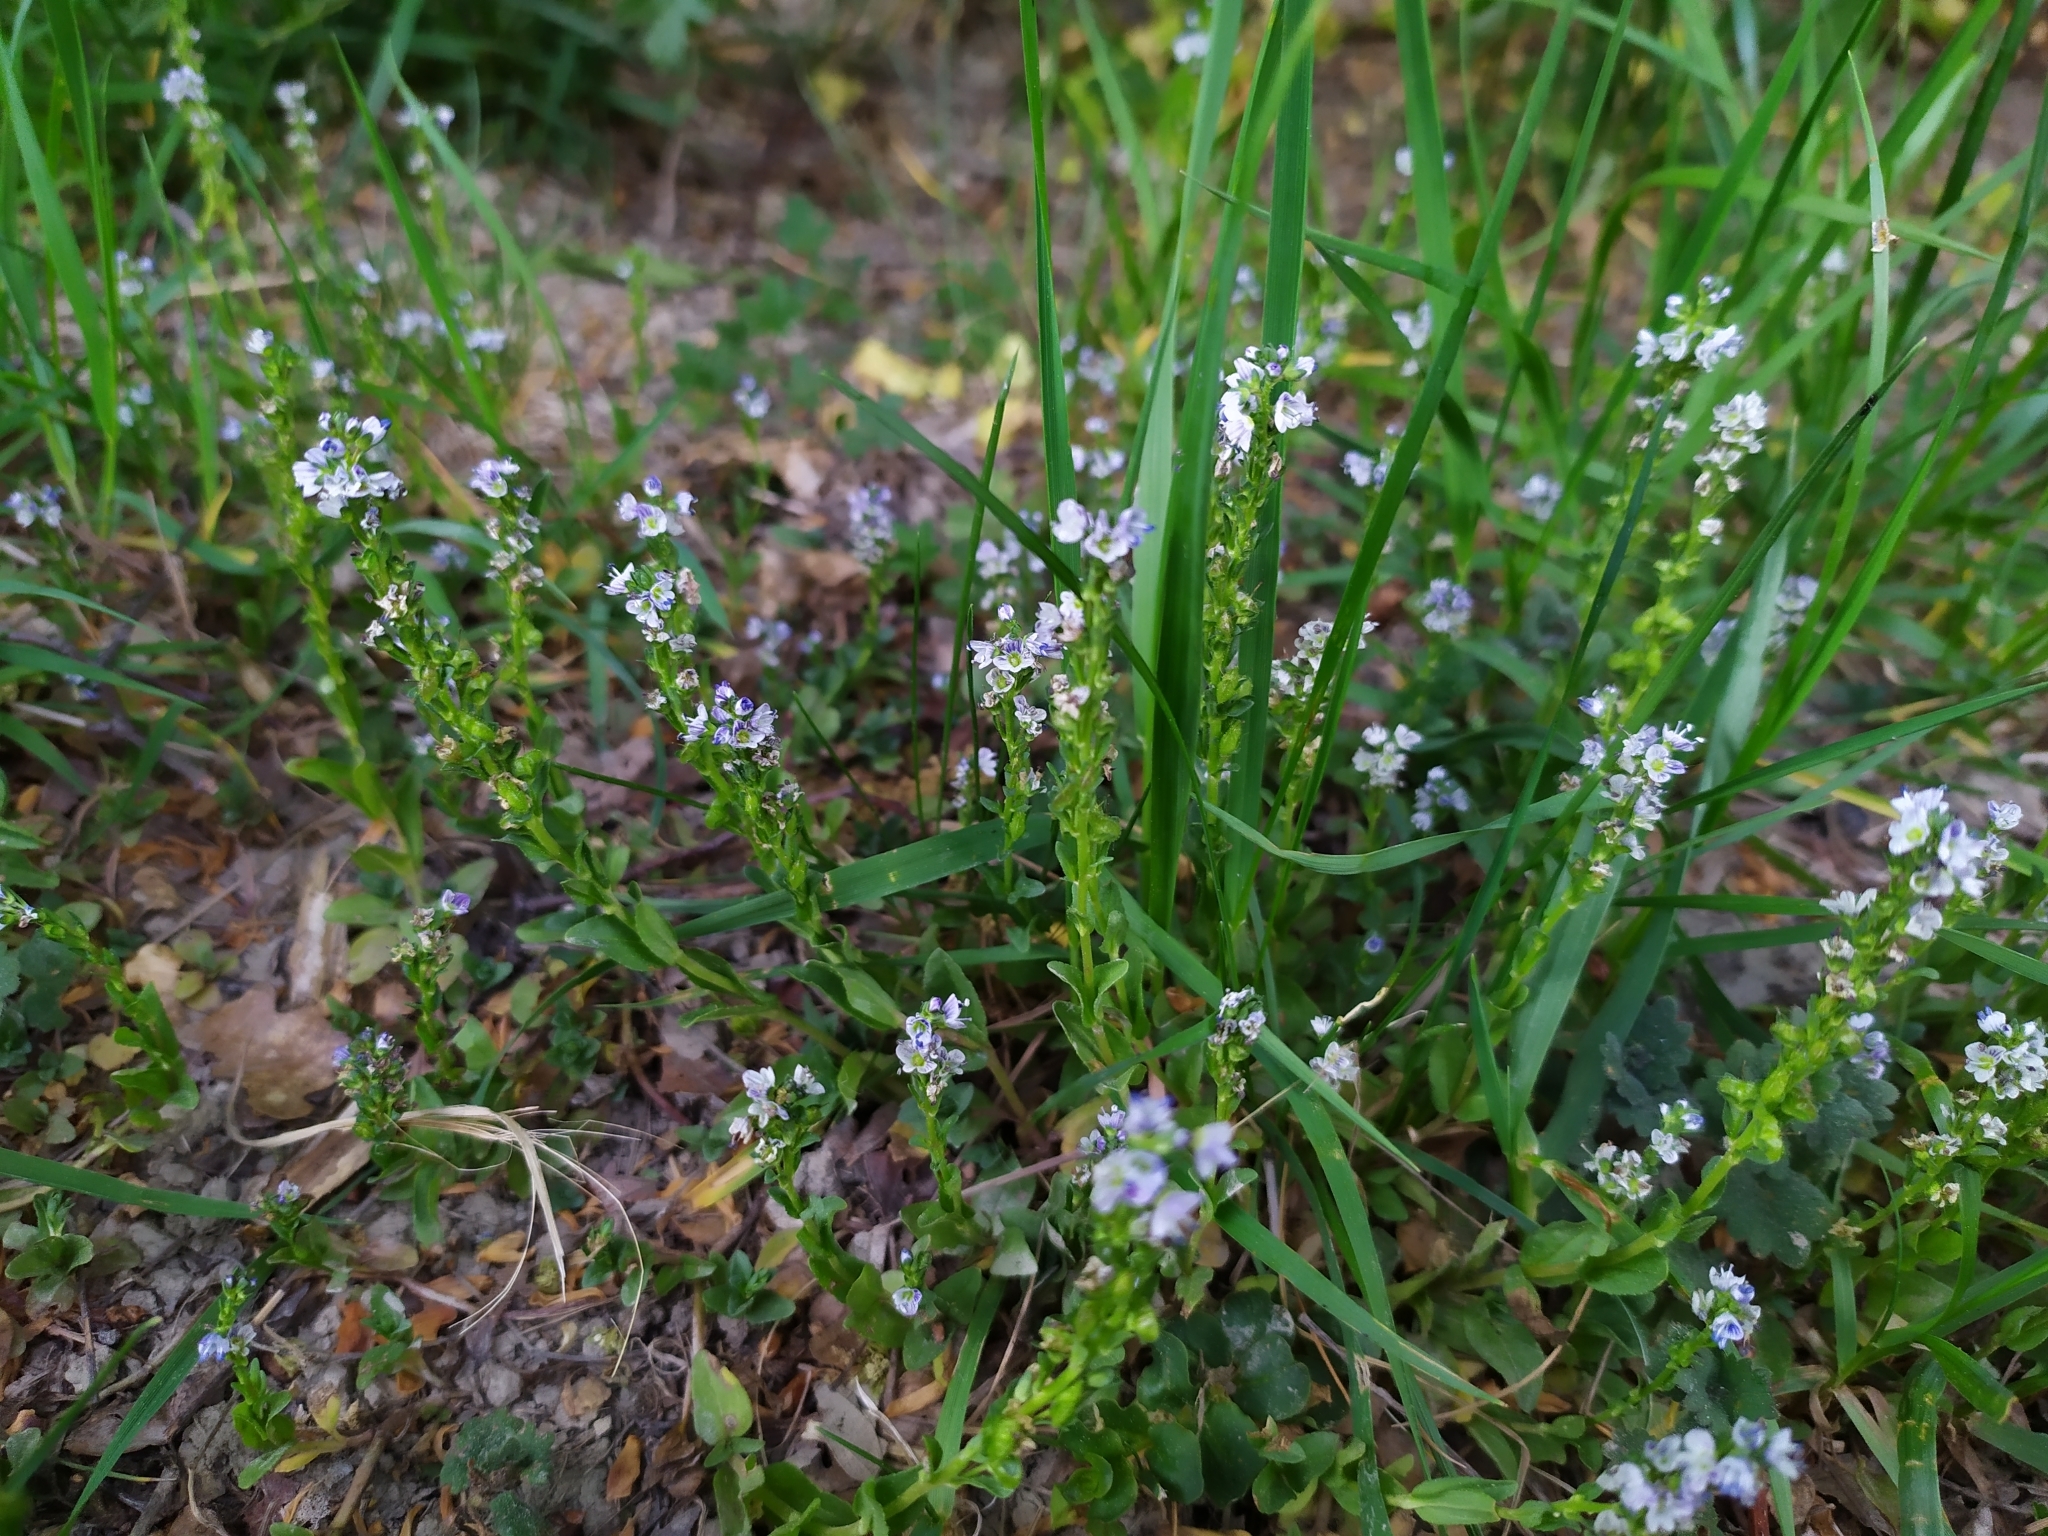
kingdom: Plantae
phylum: Tracheophyta
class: Magnoliopsida
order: Lamiales
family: Plantaginaceae
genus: Veronica
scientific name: Veronica serpyllifolia
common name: Thyme-leaved speedwell
